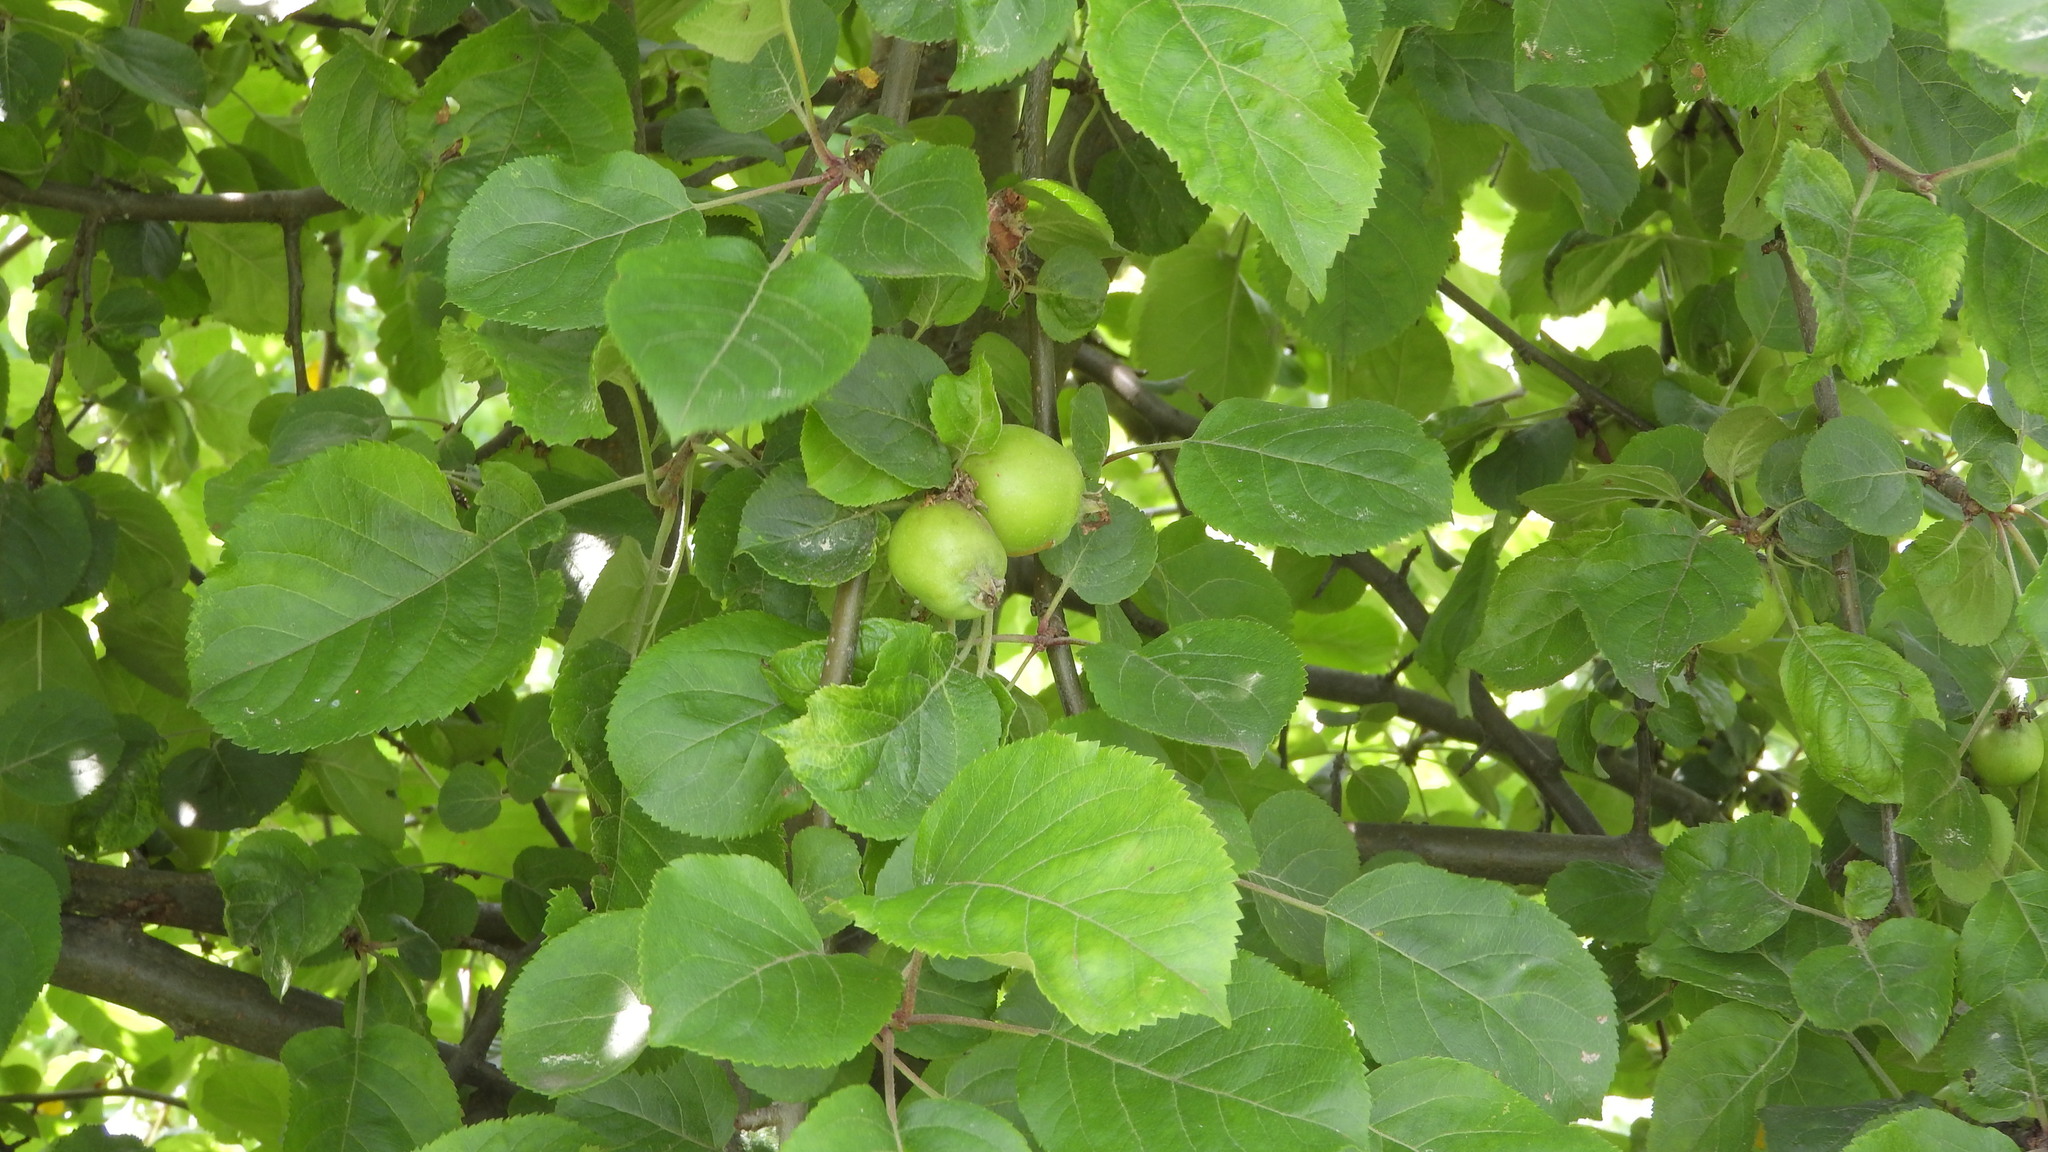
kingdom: Plantae
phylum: Tracheophyta
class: Magnoliopsida
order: Rosales
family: Rosaceae
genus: Malus
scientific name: Malus domestica
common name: Apple
